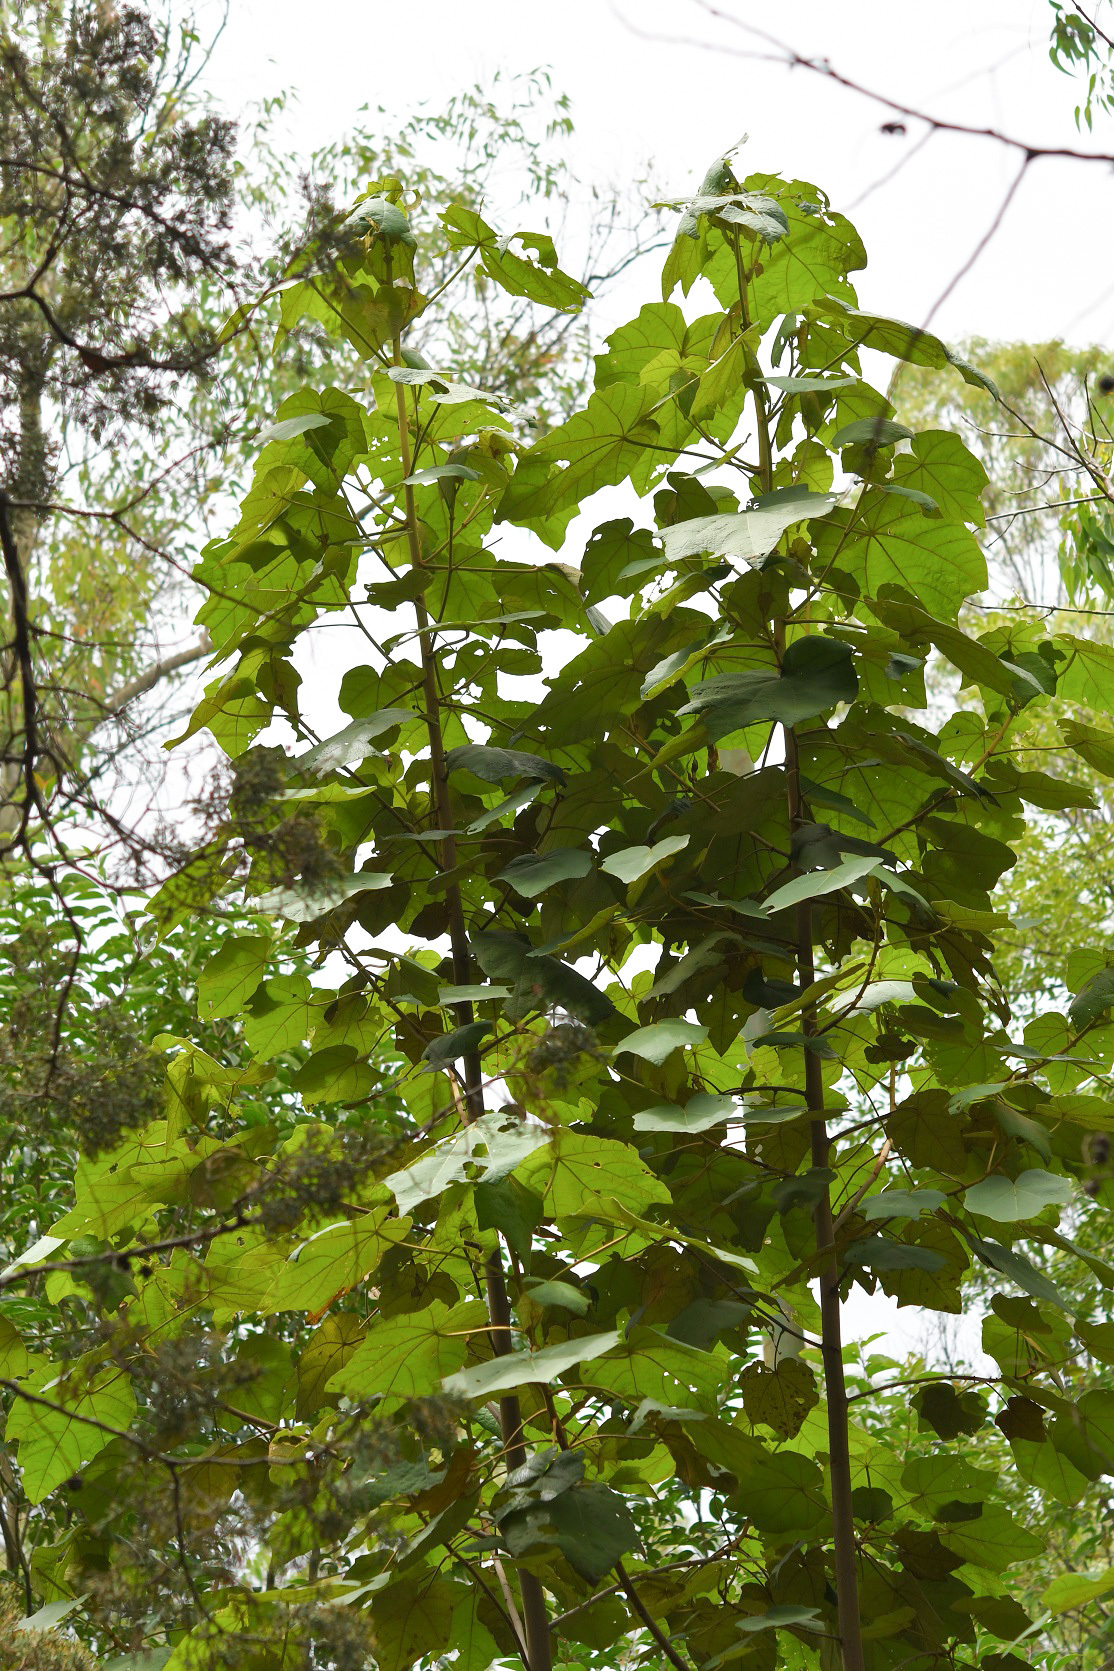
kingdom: Plantae
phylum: Tracheophyta
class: Magnoliopsida
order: Malvales
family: Malvaceae
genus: Chiranthodendron
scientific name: Chiranthodendron pentadactylon
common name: Mexican-hat-plant
